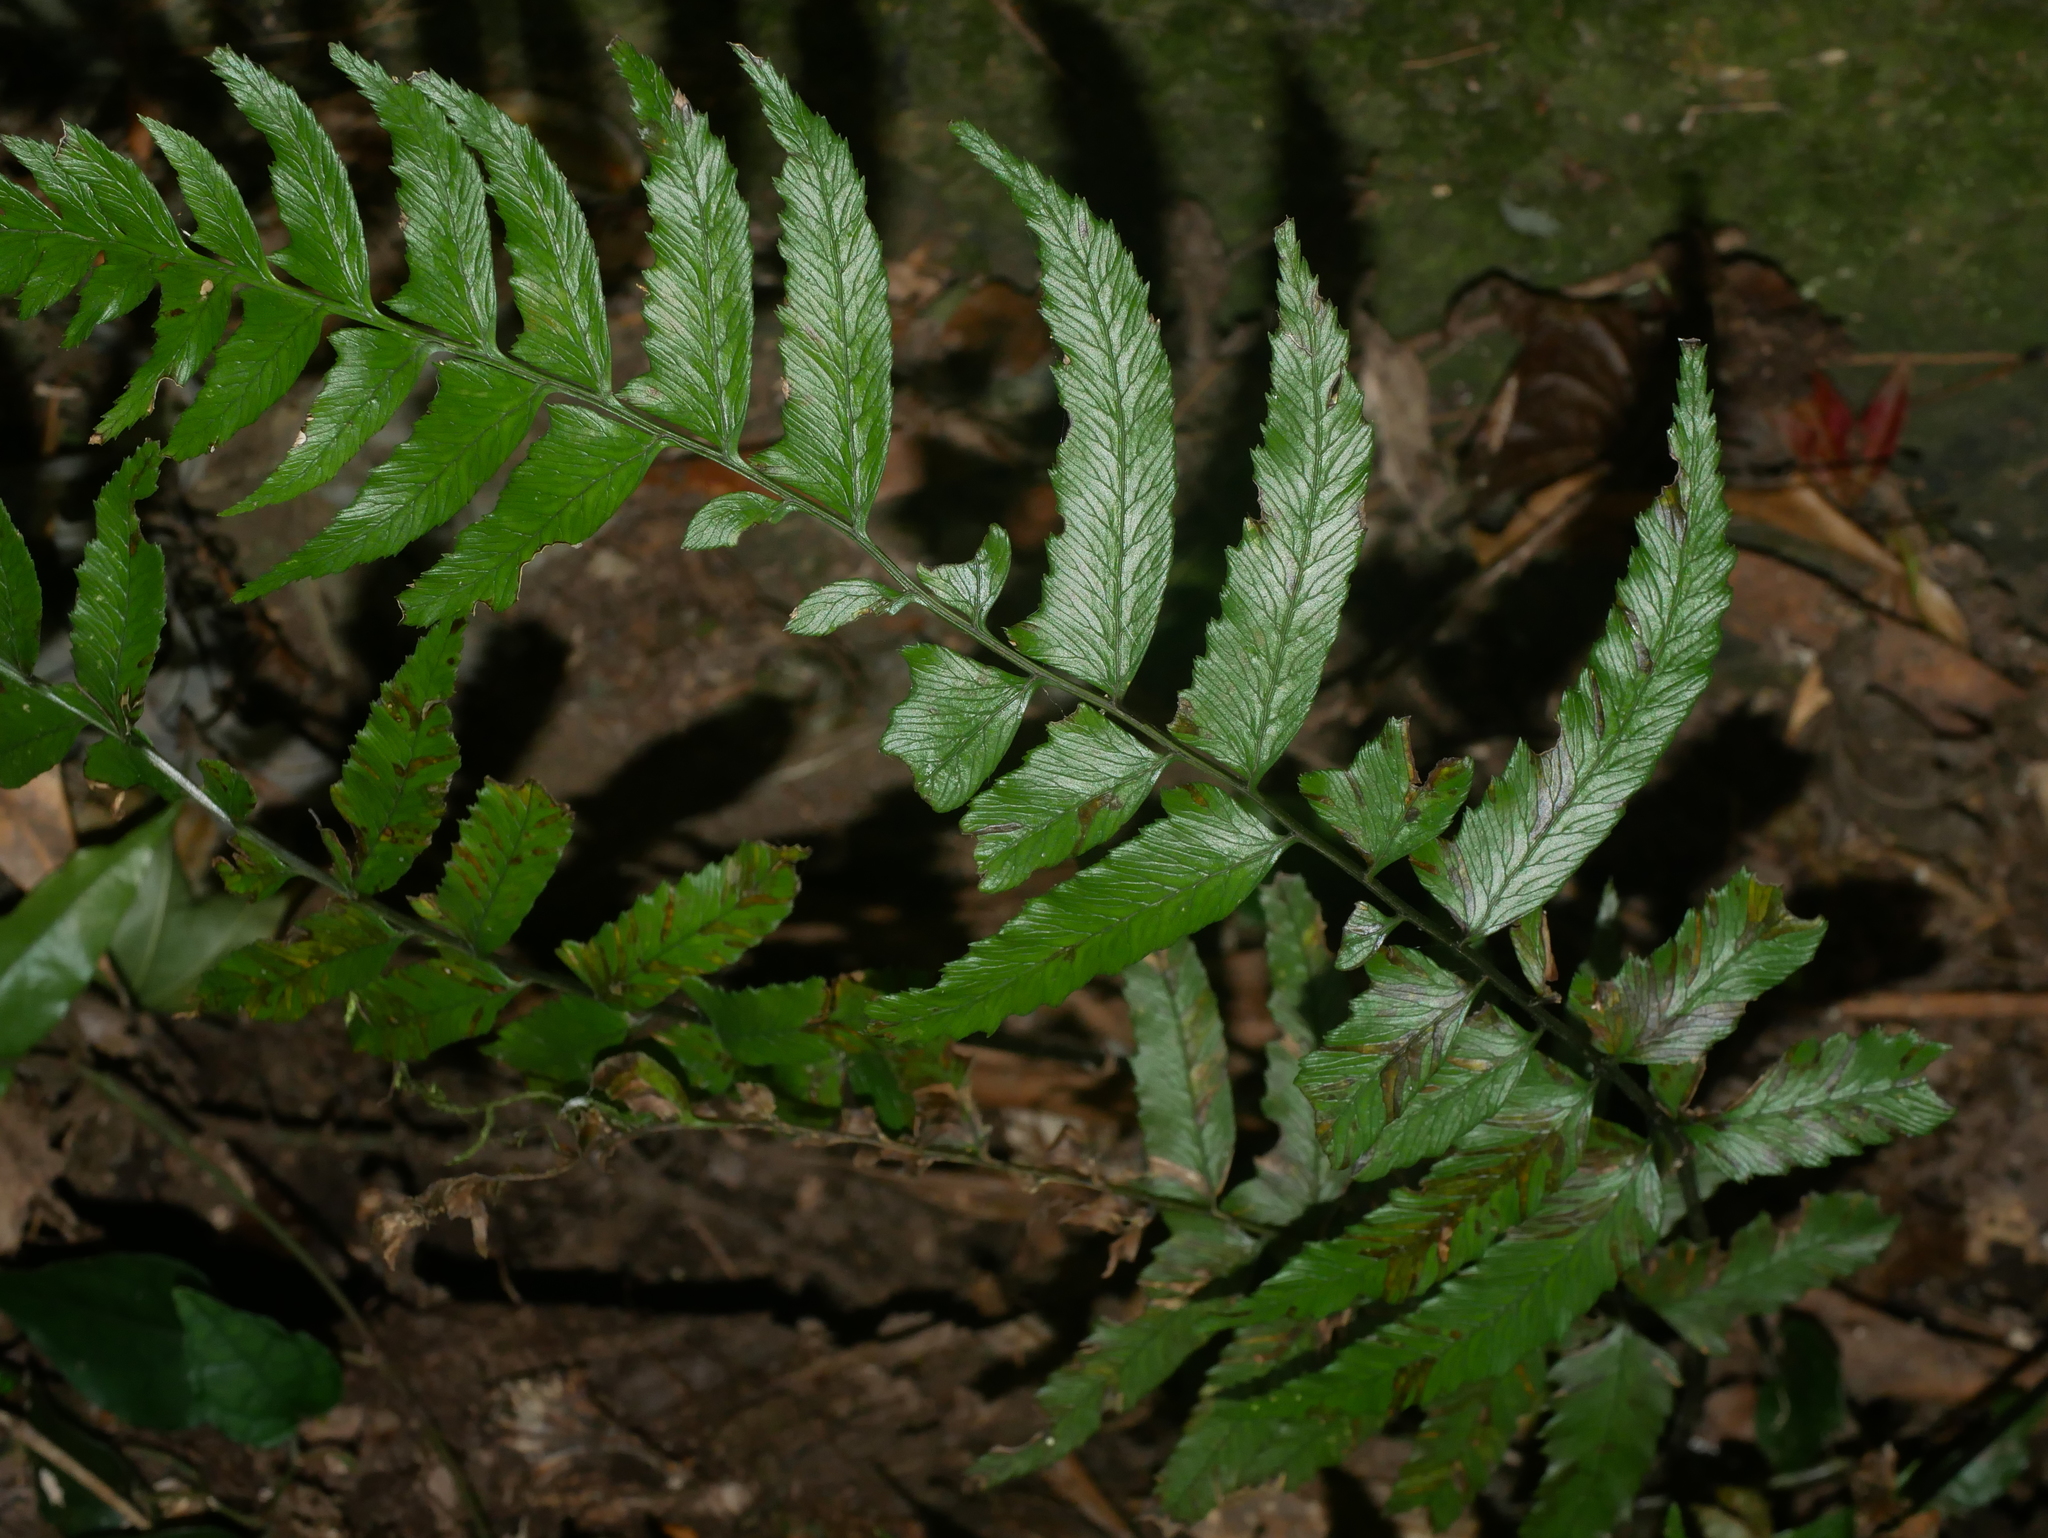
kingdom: Plantae
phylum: Tracheophyta
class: Polypodiopsida
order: Polypodiales
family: Athyriaceae
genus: Diplazium
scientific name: Diplazium wichurae
